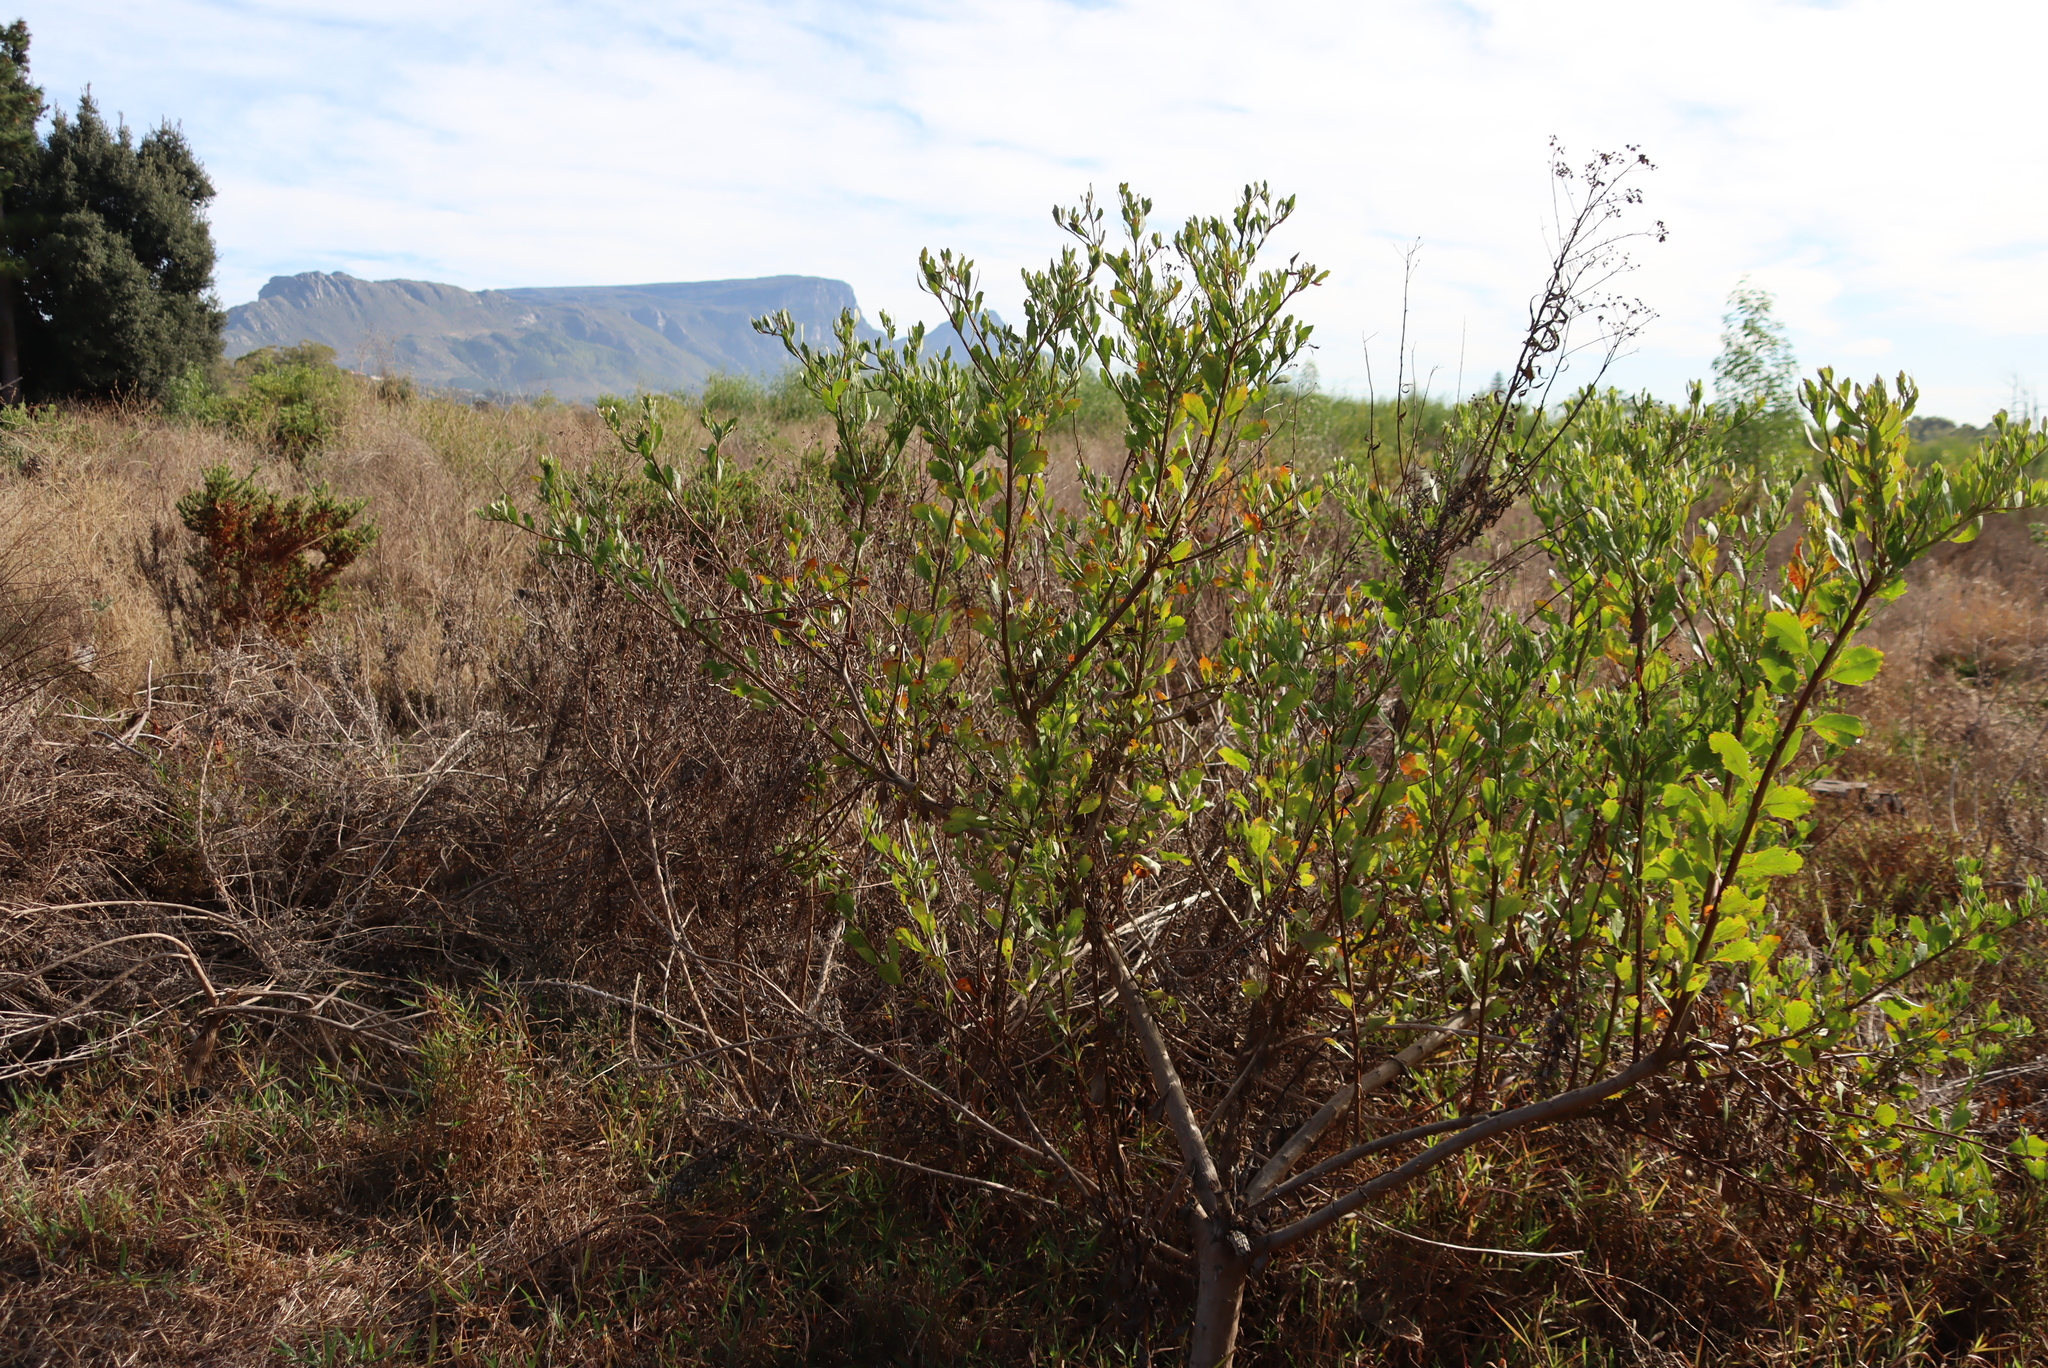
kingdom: Plantae
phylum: Tracheophyta
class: Magnoliopsida
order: Asterales
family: Asteraceae
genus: Osteospermum
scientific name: Osteospermum moniliferum
